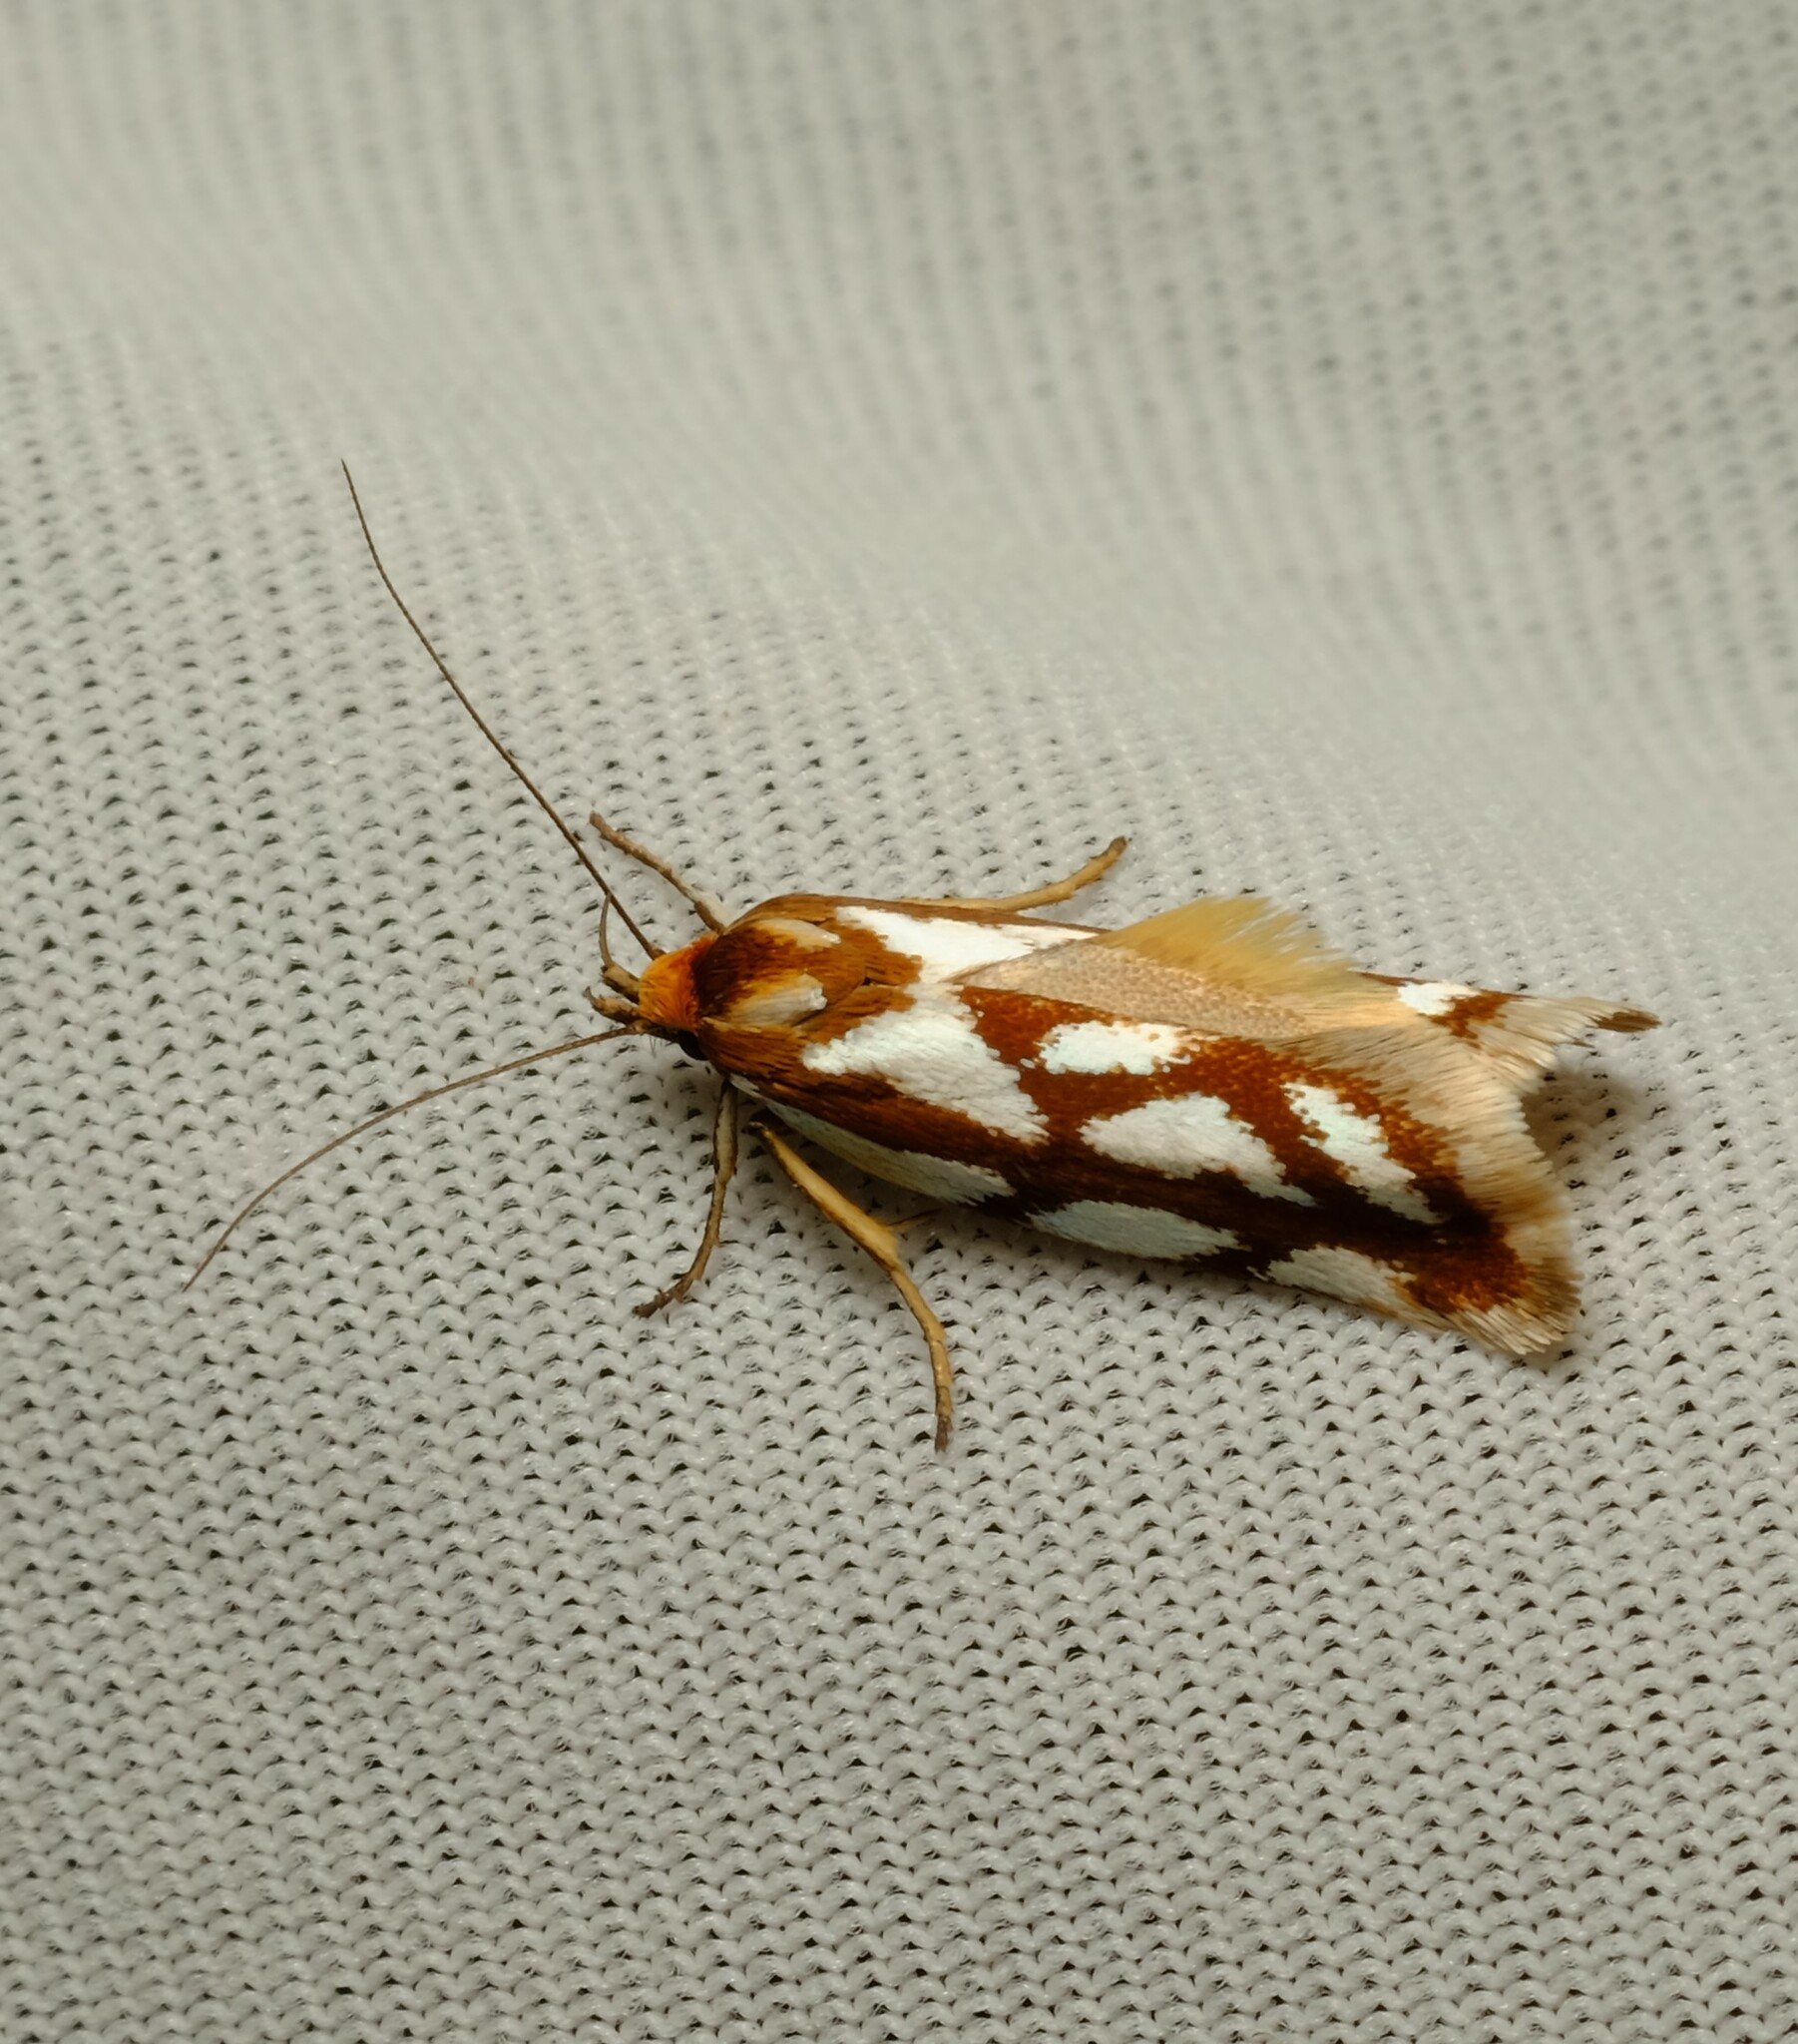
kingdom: Animalia
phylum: Arthropoda
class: Insecta
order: Lepidoptera
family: Oecophoridae
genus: Myrascia
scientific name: Myrascia bracteatella
